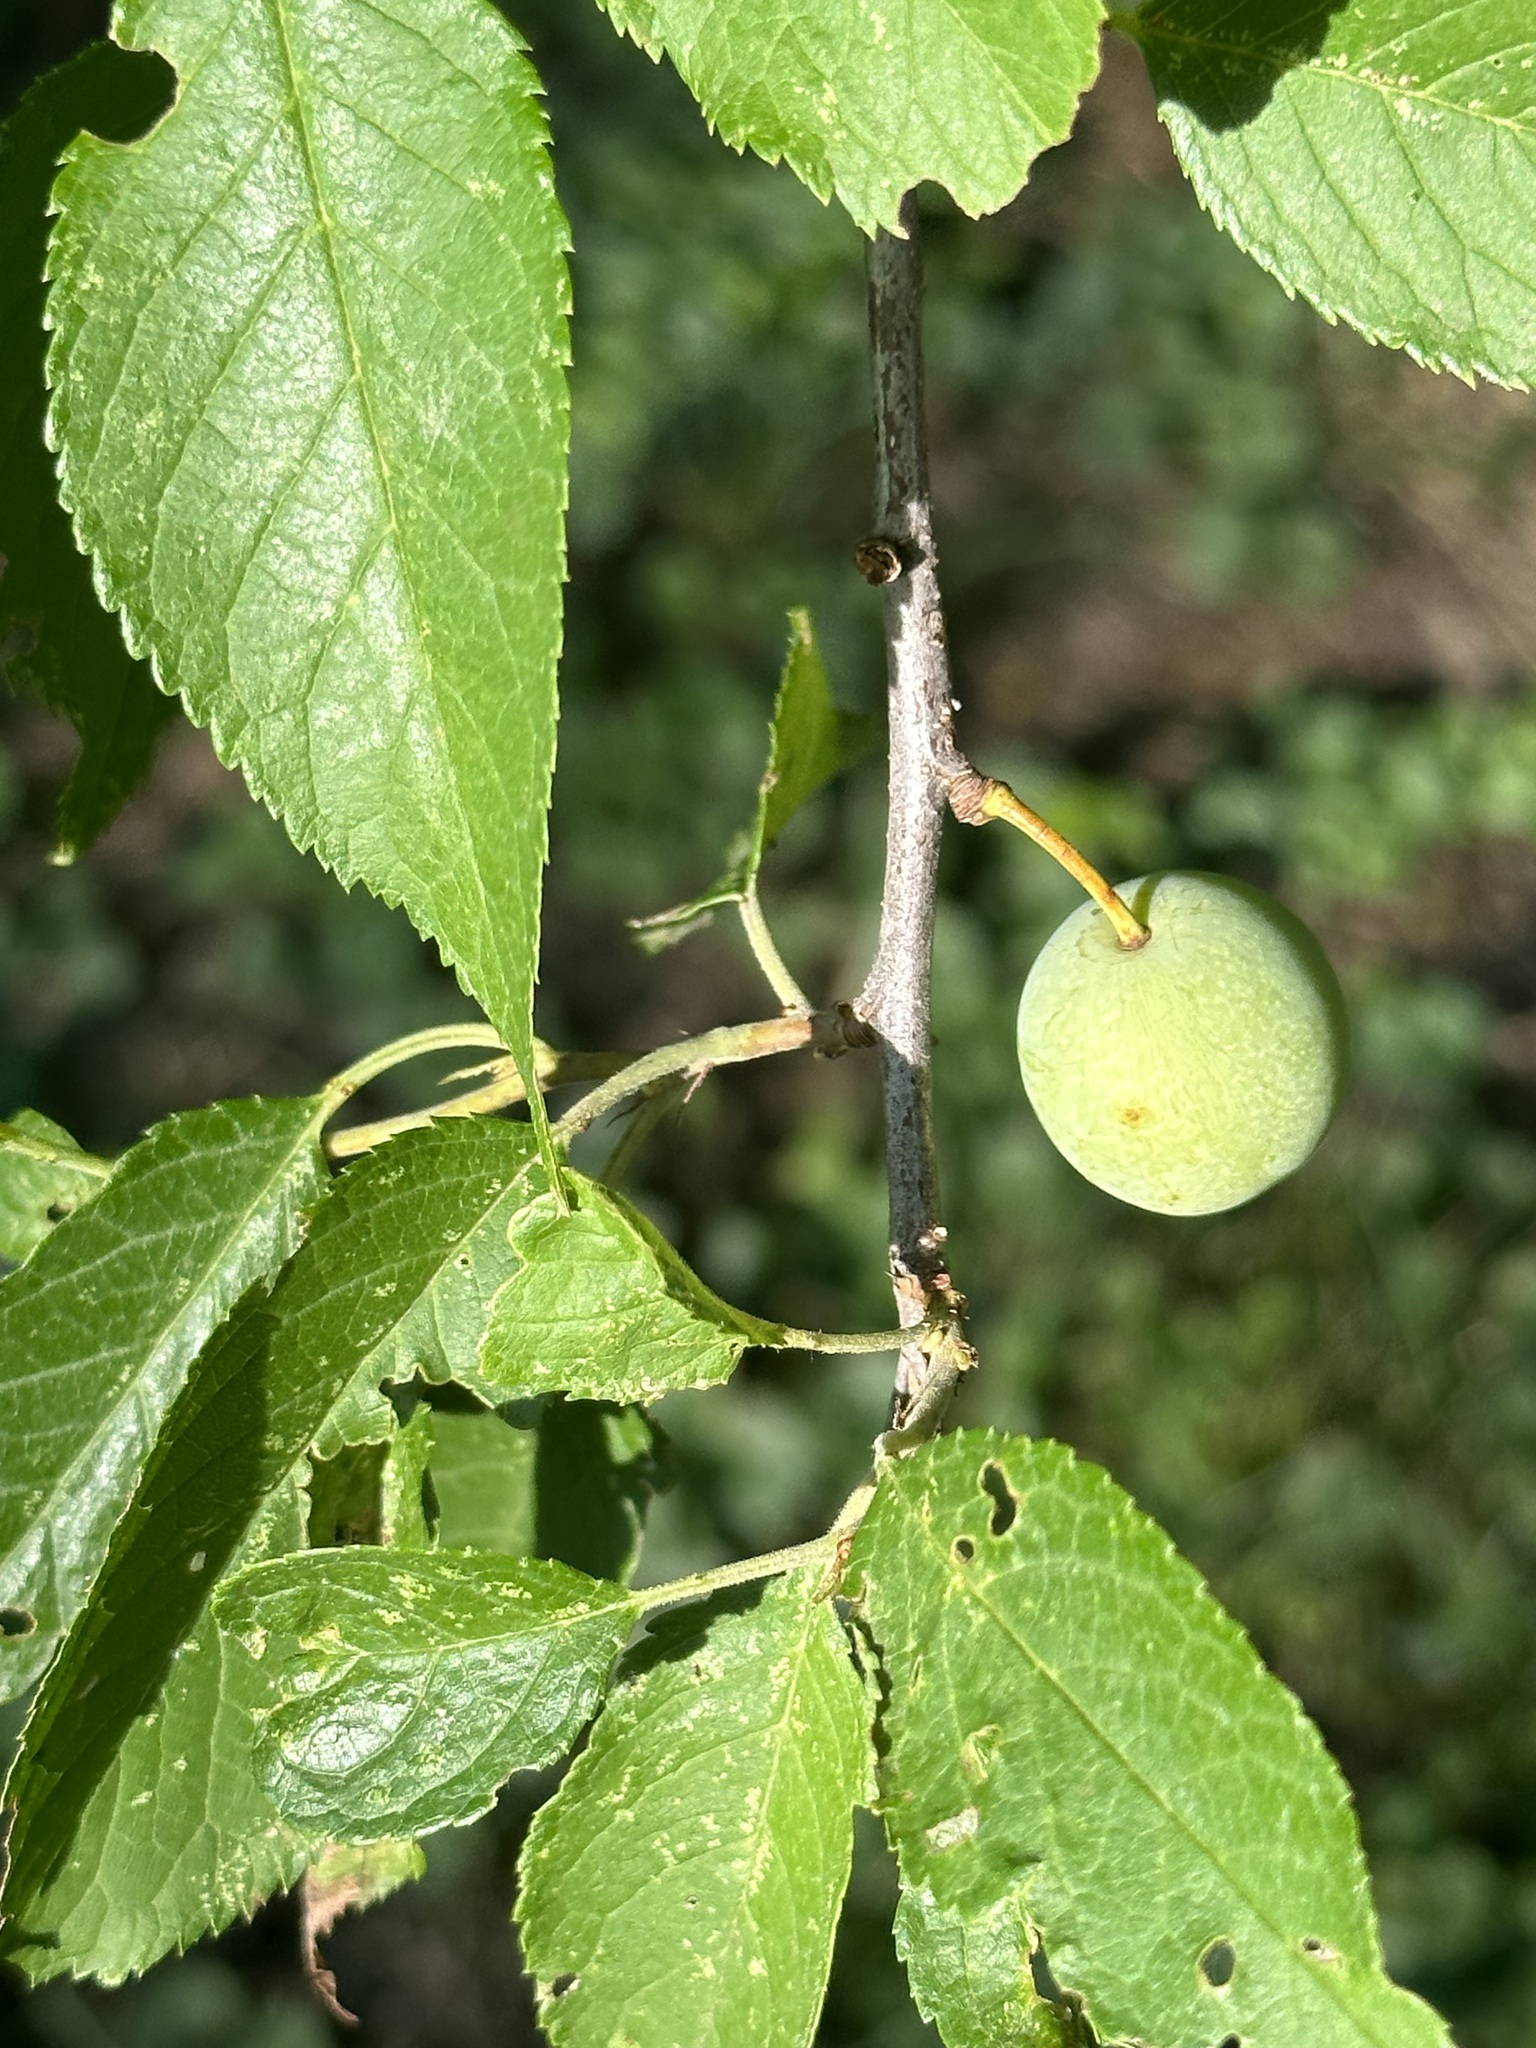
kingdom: Plantae
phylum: Tracheophyta
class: Magnoliopsida
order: Rosales
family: Rosaceae
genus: Prunus
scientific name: Prunus americana
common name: American plum
